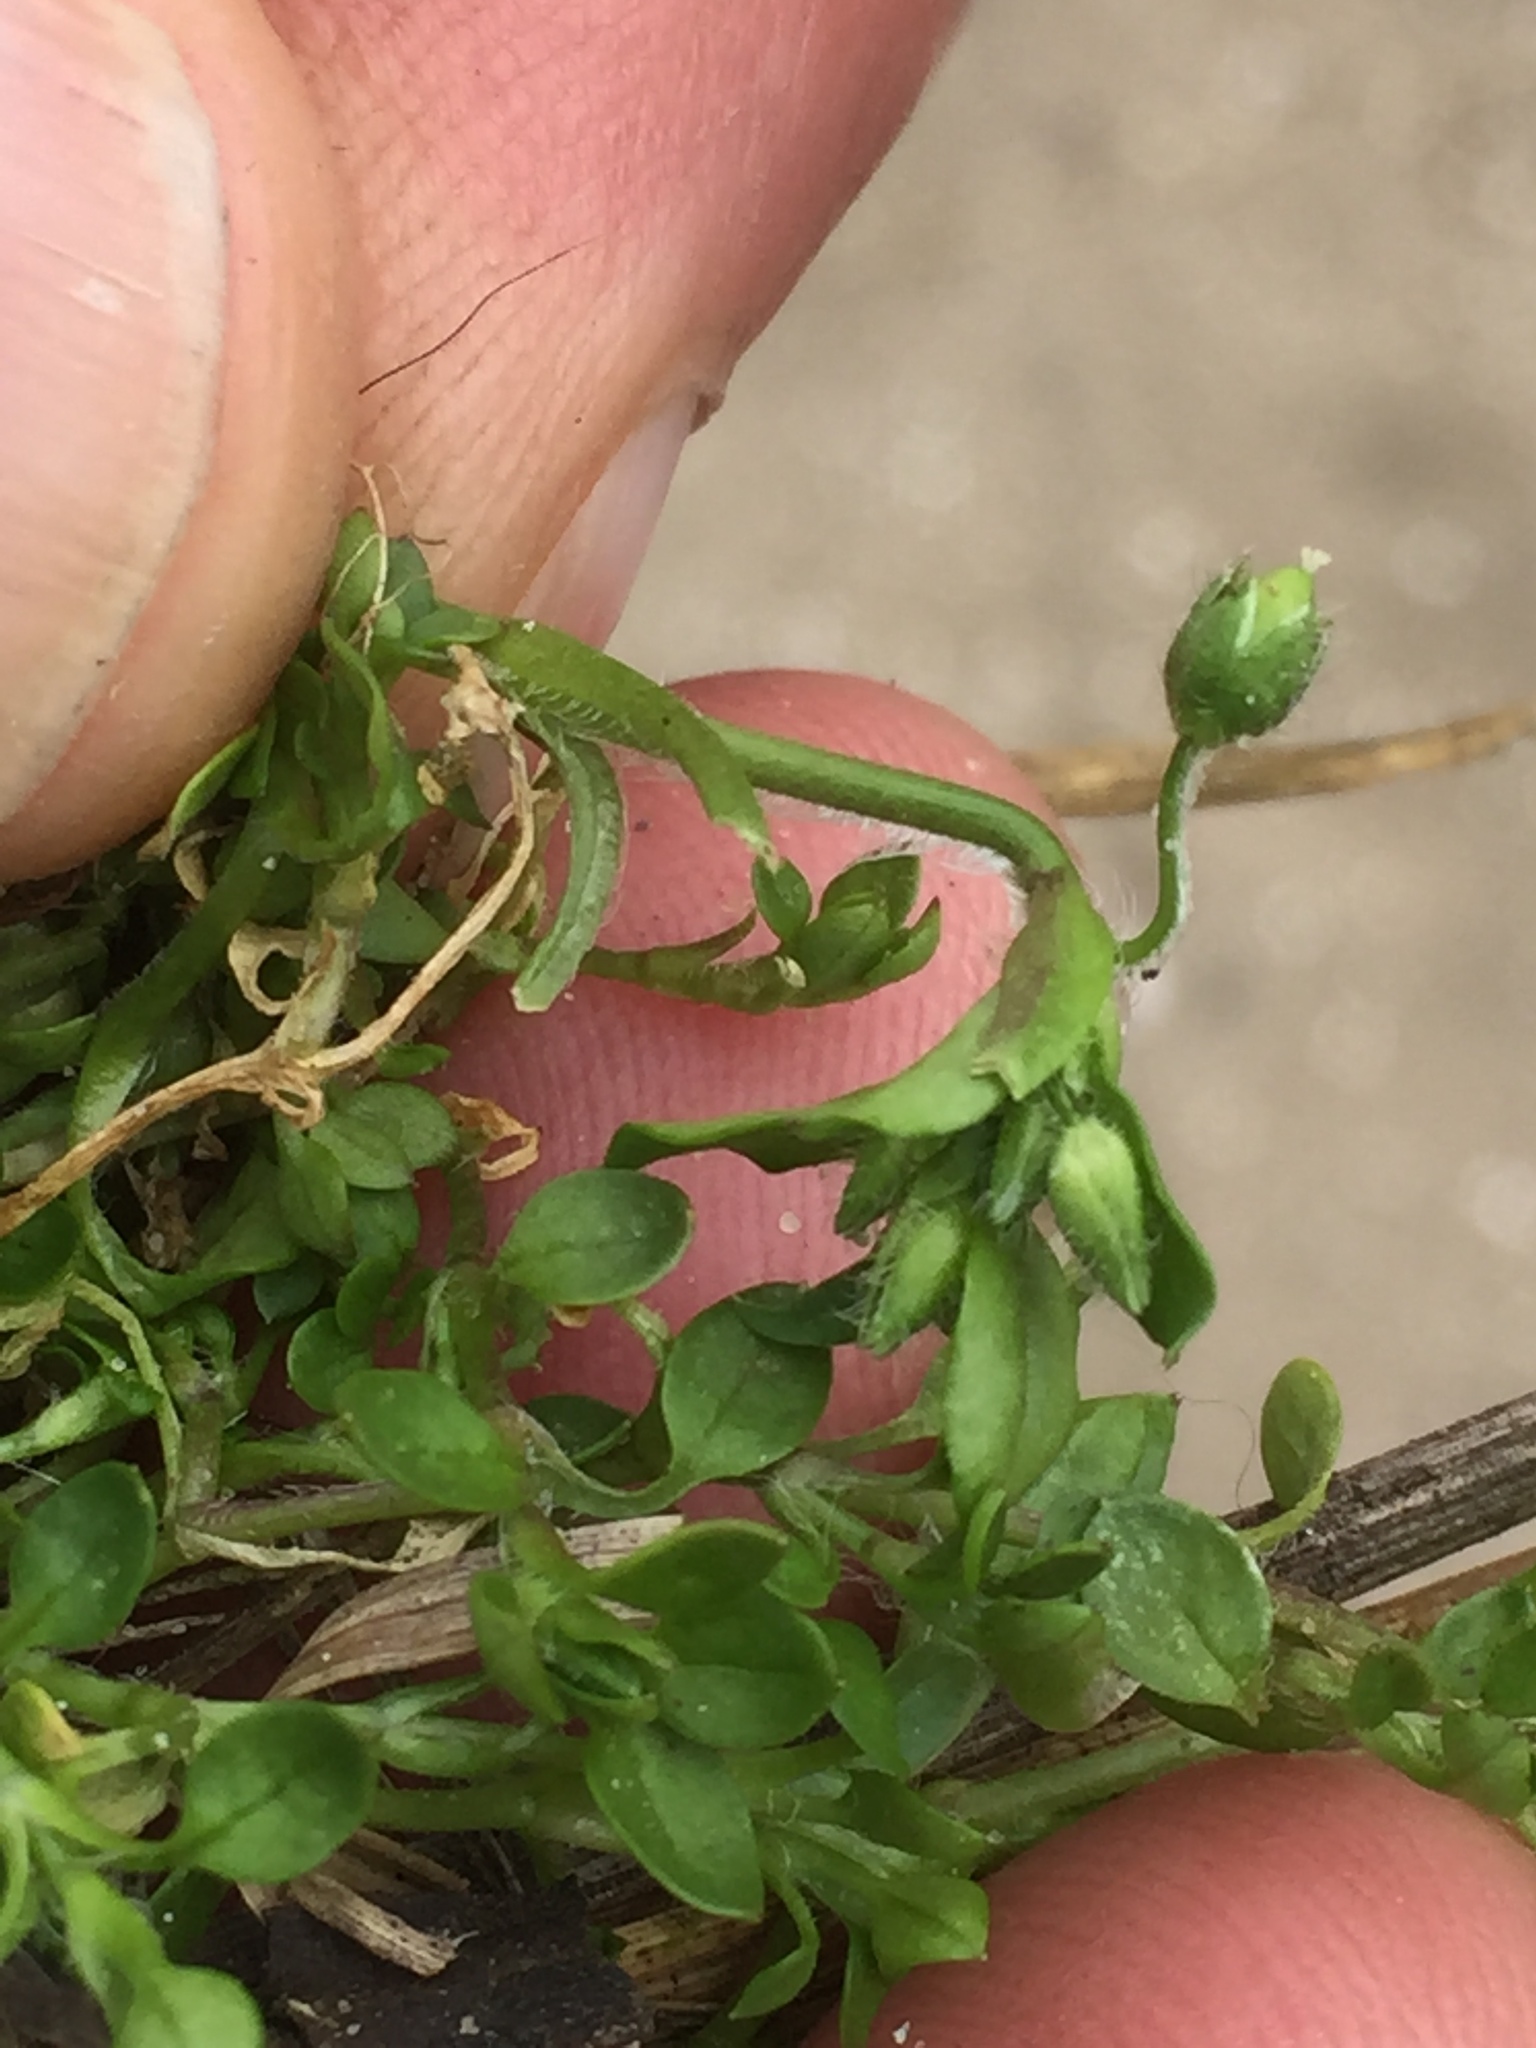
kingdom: Plantae
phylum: Tracheophyta
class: Magnoliopsida
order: Caryophyllales
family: Caryophyllaceae
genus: Stellaria
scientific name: Stellaria apetala
